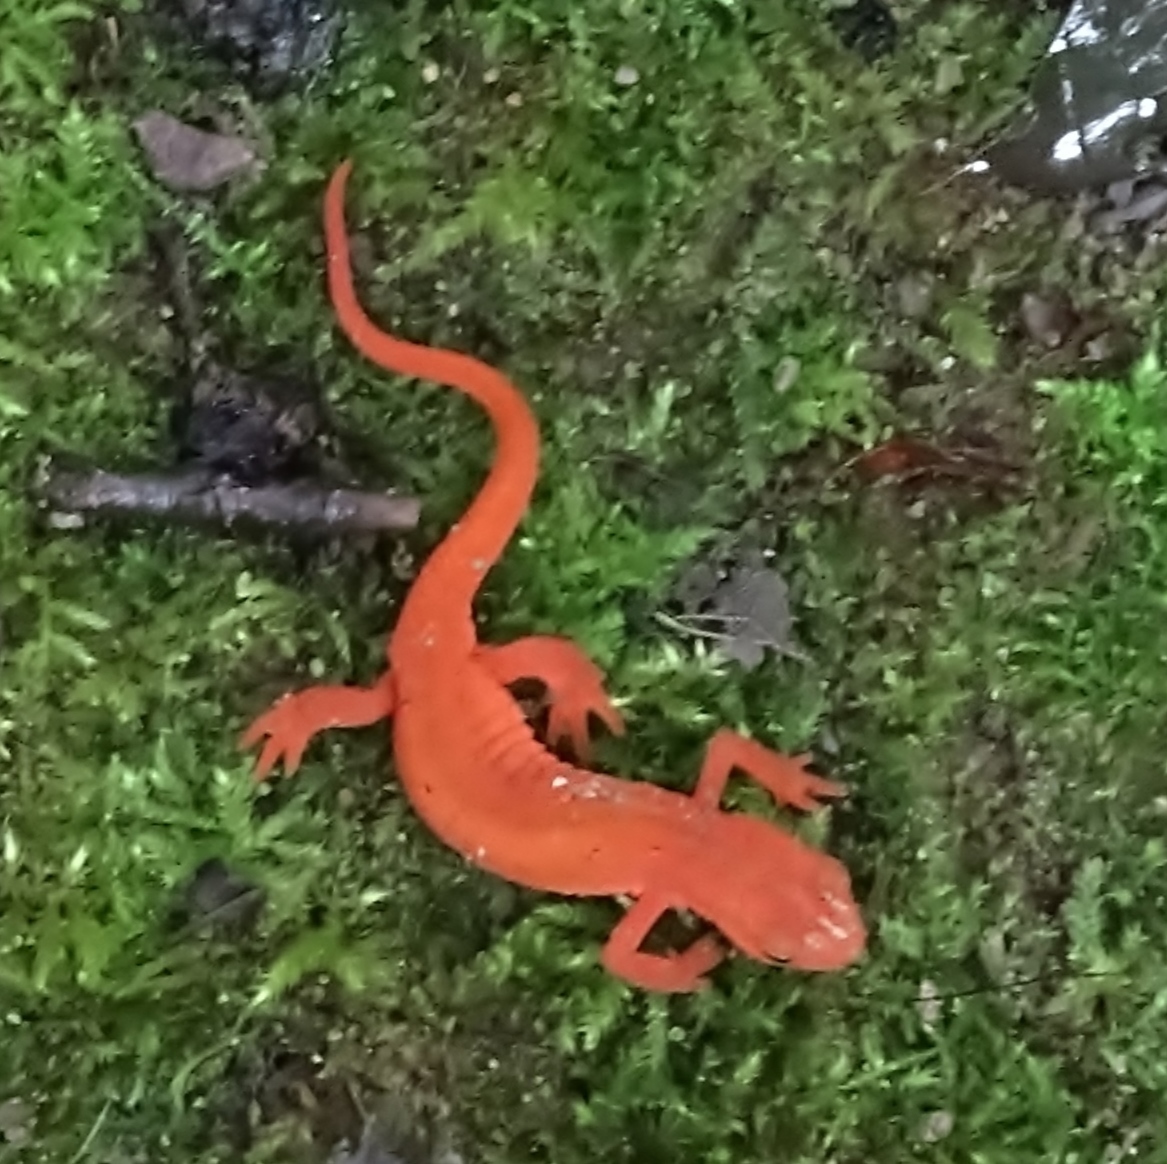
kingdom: Animalia
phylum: Chordata
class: Amphibia
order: Caudata
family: Salamandridae
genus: Notophthalmus
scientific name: Notophthalmus viridescens
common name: Eastern newt
